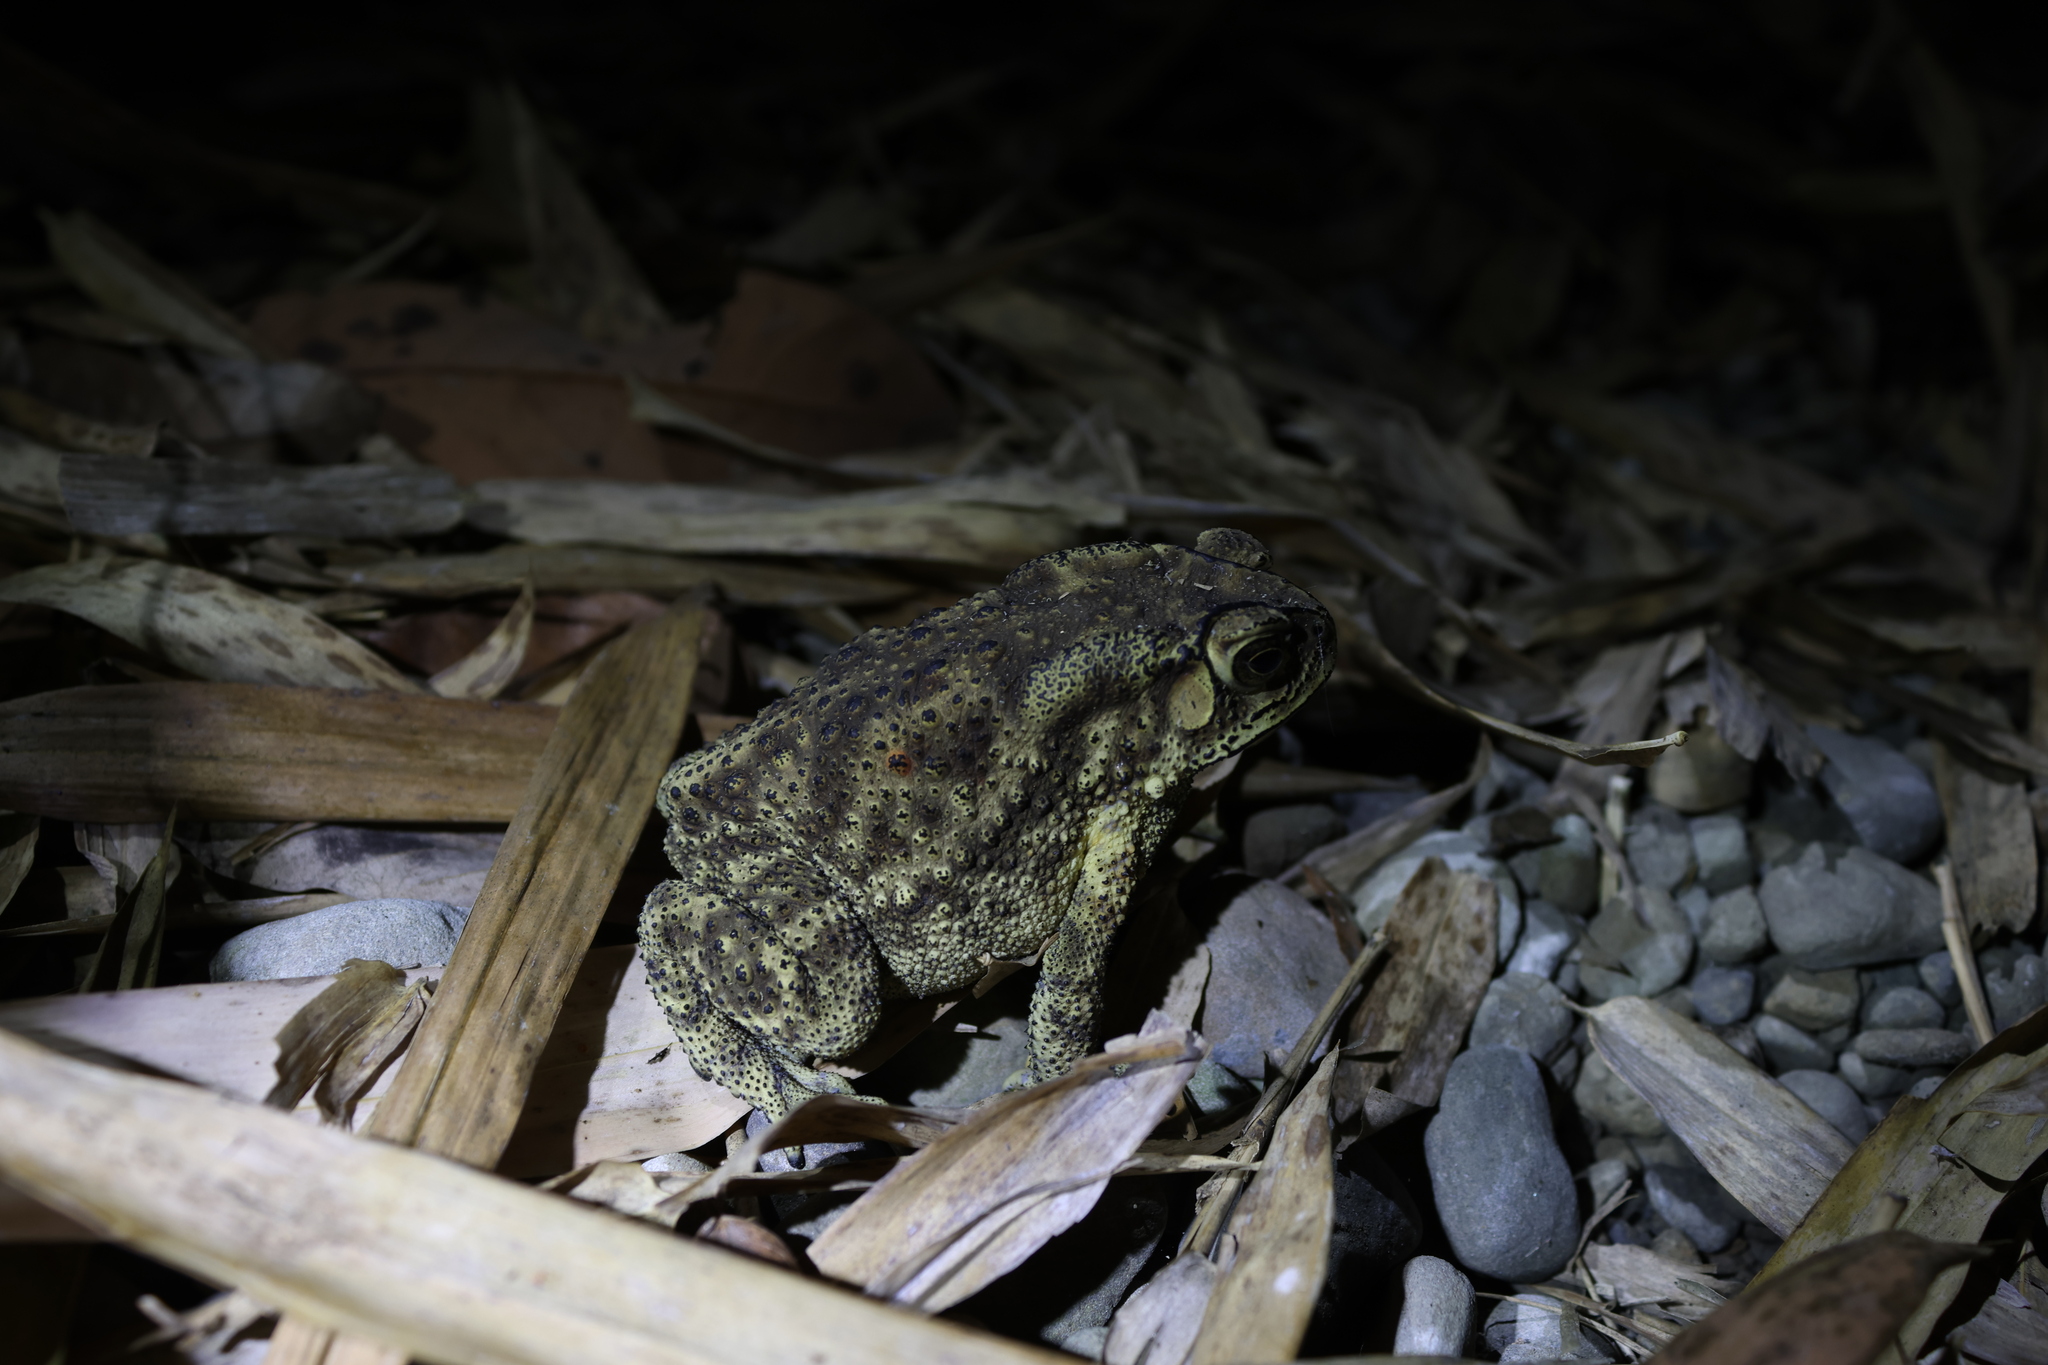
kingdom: Animalia
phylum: Chordata
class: Amphibia
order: Anura
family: Bufonidae
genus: Duttaphrynus
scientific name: Duttaphrynus melanostictus
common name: Common sunda toad
